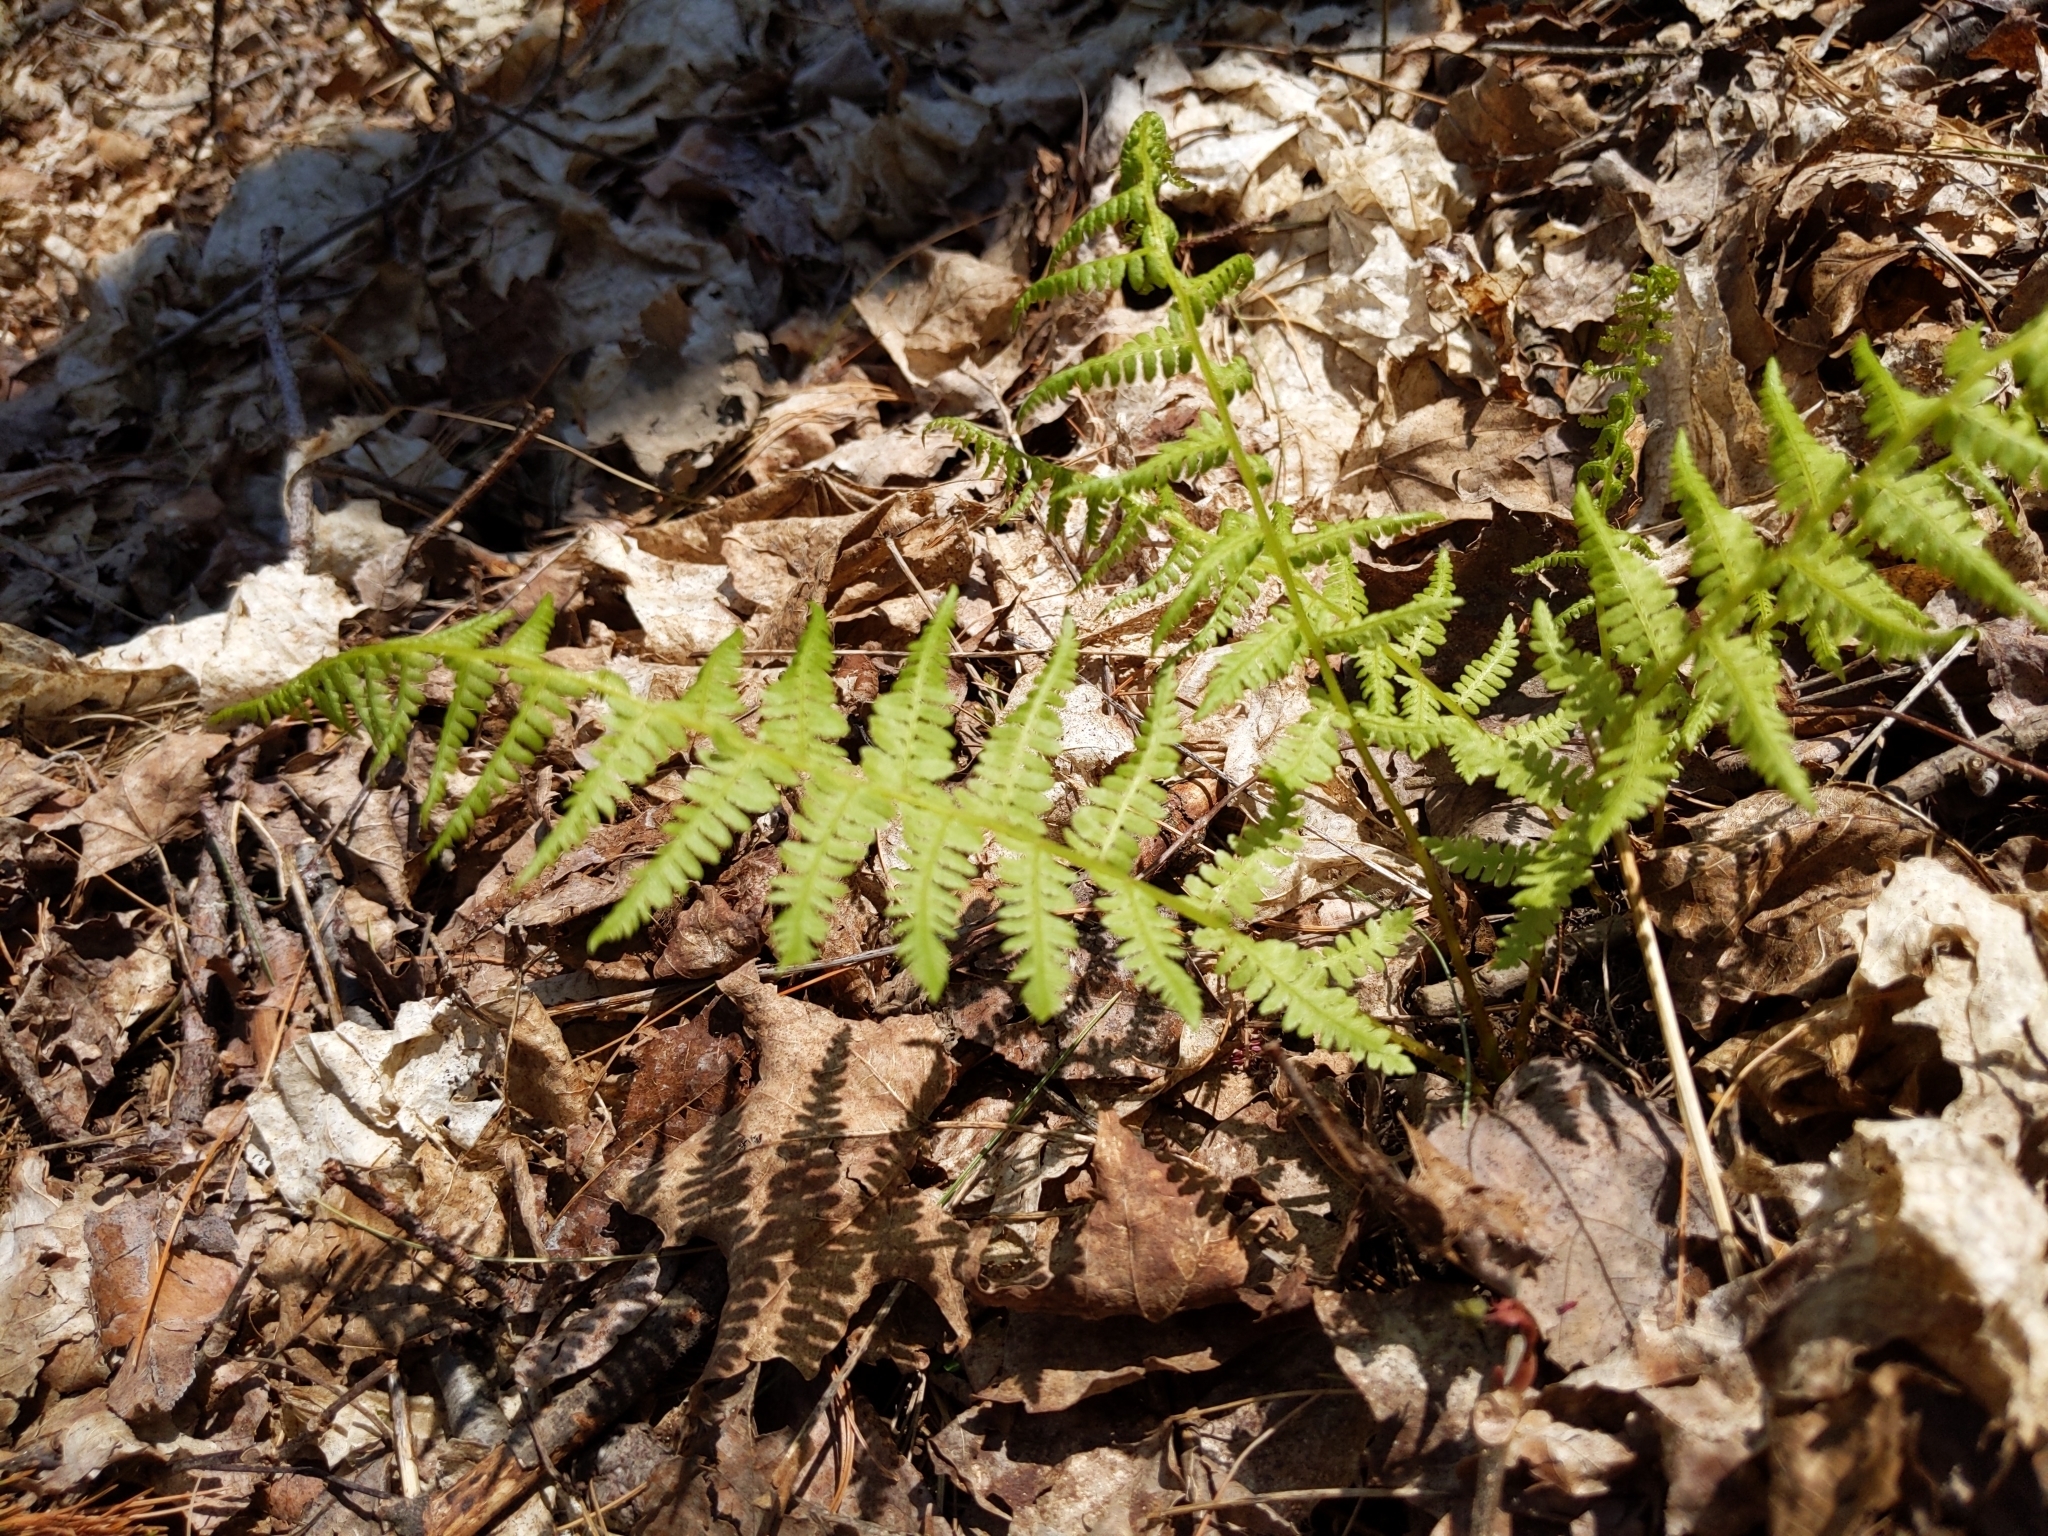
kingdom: Plantae
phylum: Tracheophyta
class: Polypodiopsida
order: Polypodiales
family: Athyriaceae
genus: Athyrium
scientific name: Athyrium angustum
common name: Northern lady fern
